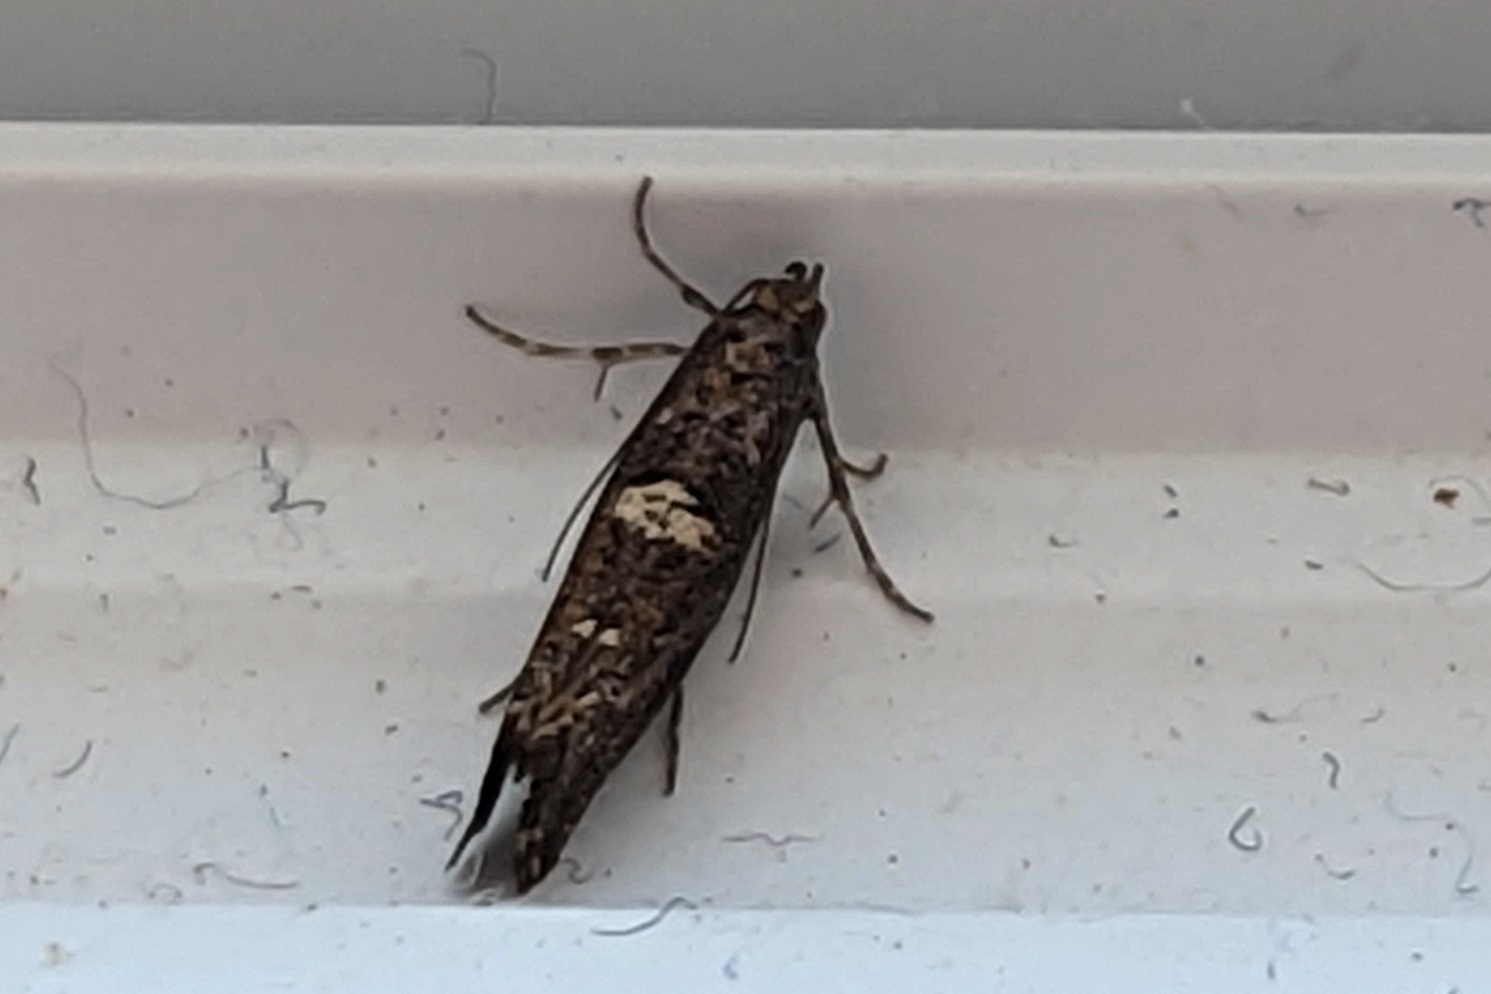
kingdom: Animalia
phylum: Arthropoda
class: Insecta
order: Lepidoptera
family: Glyphipterigidae
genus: Acrolepia
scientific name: Acrolepia assectella
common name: Onion leaf miner
